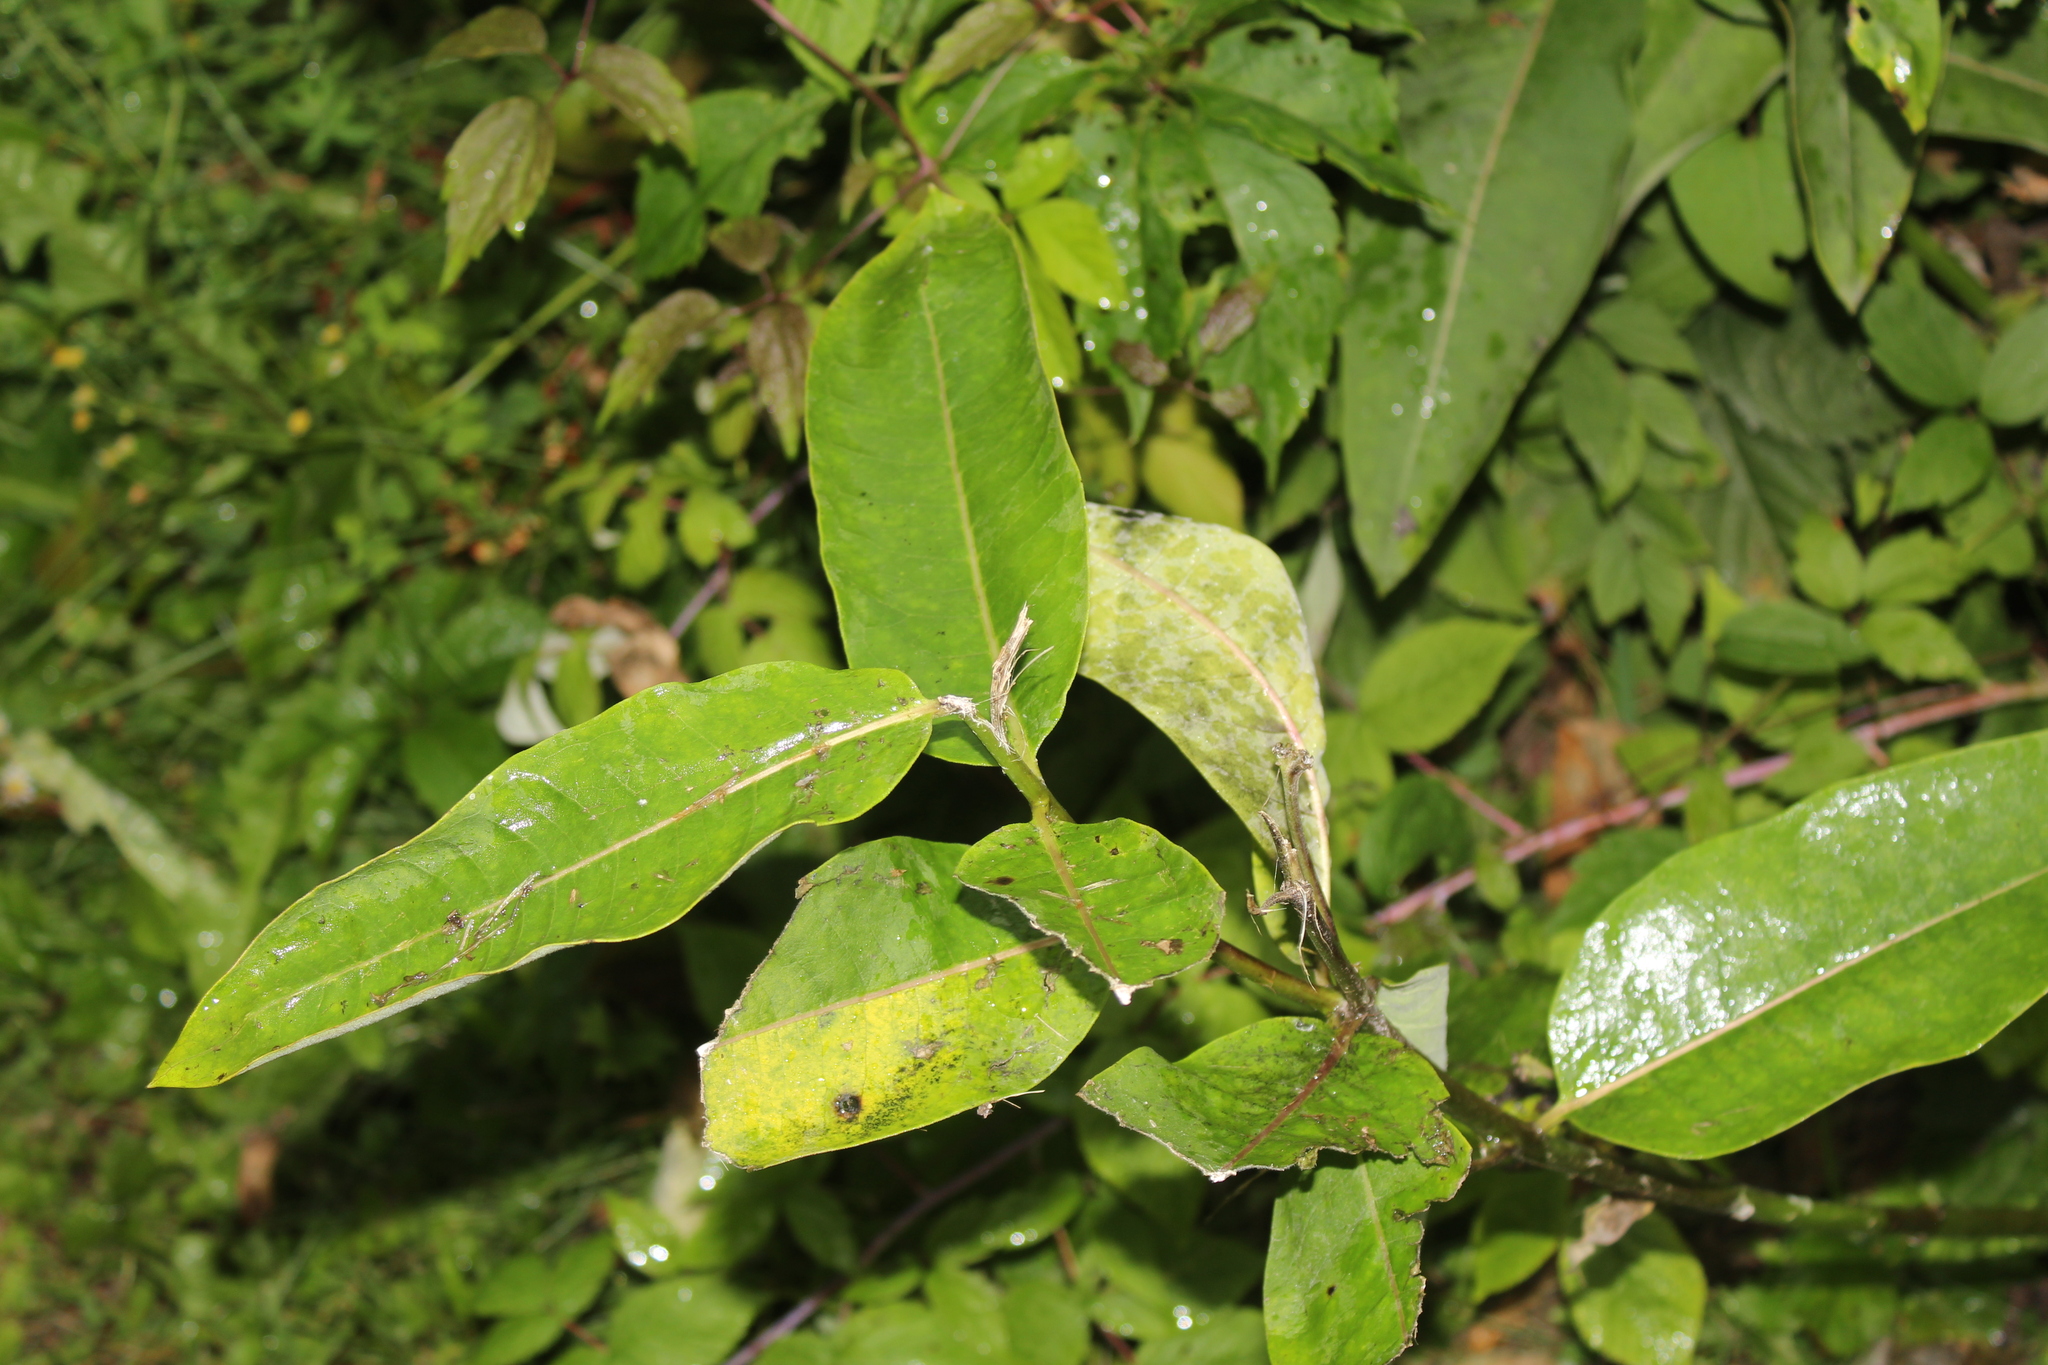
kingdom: Plantae
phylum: Tracheophyta
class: Magnoliopsida
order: Gentianales
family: Apocynaceae
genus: Asclepias
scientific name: Asclepias syriaca
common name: Common milkweed
